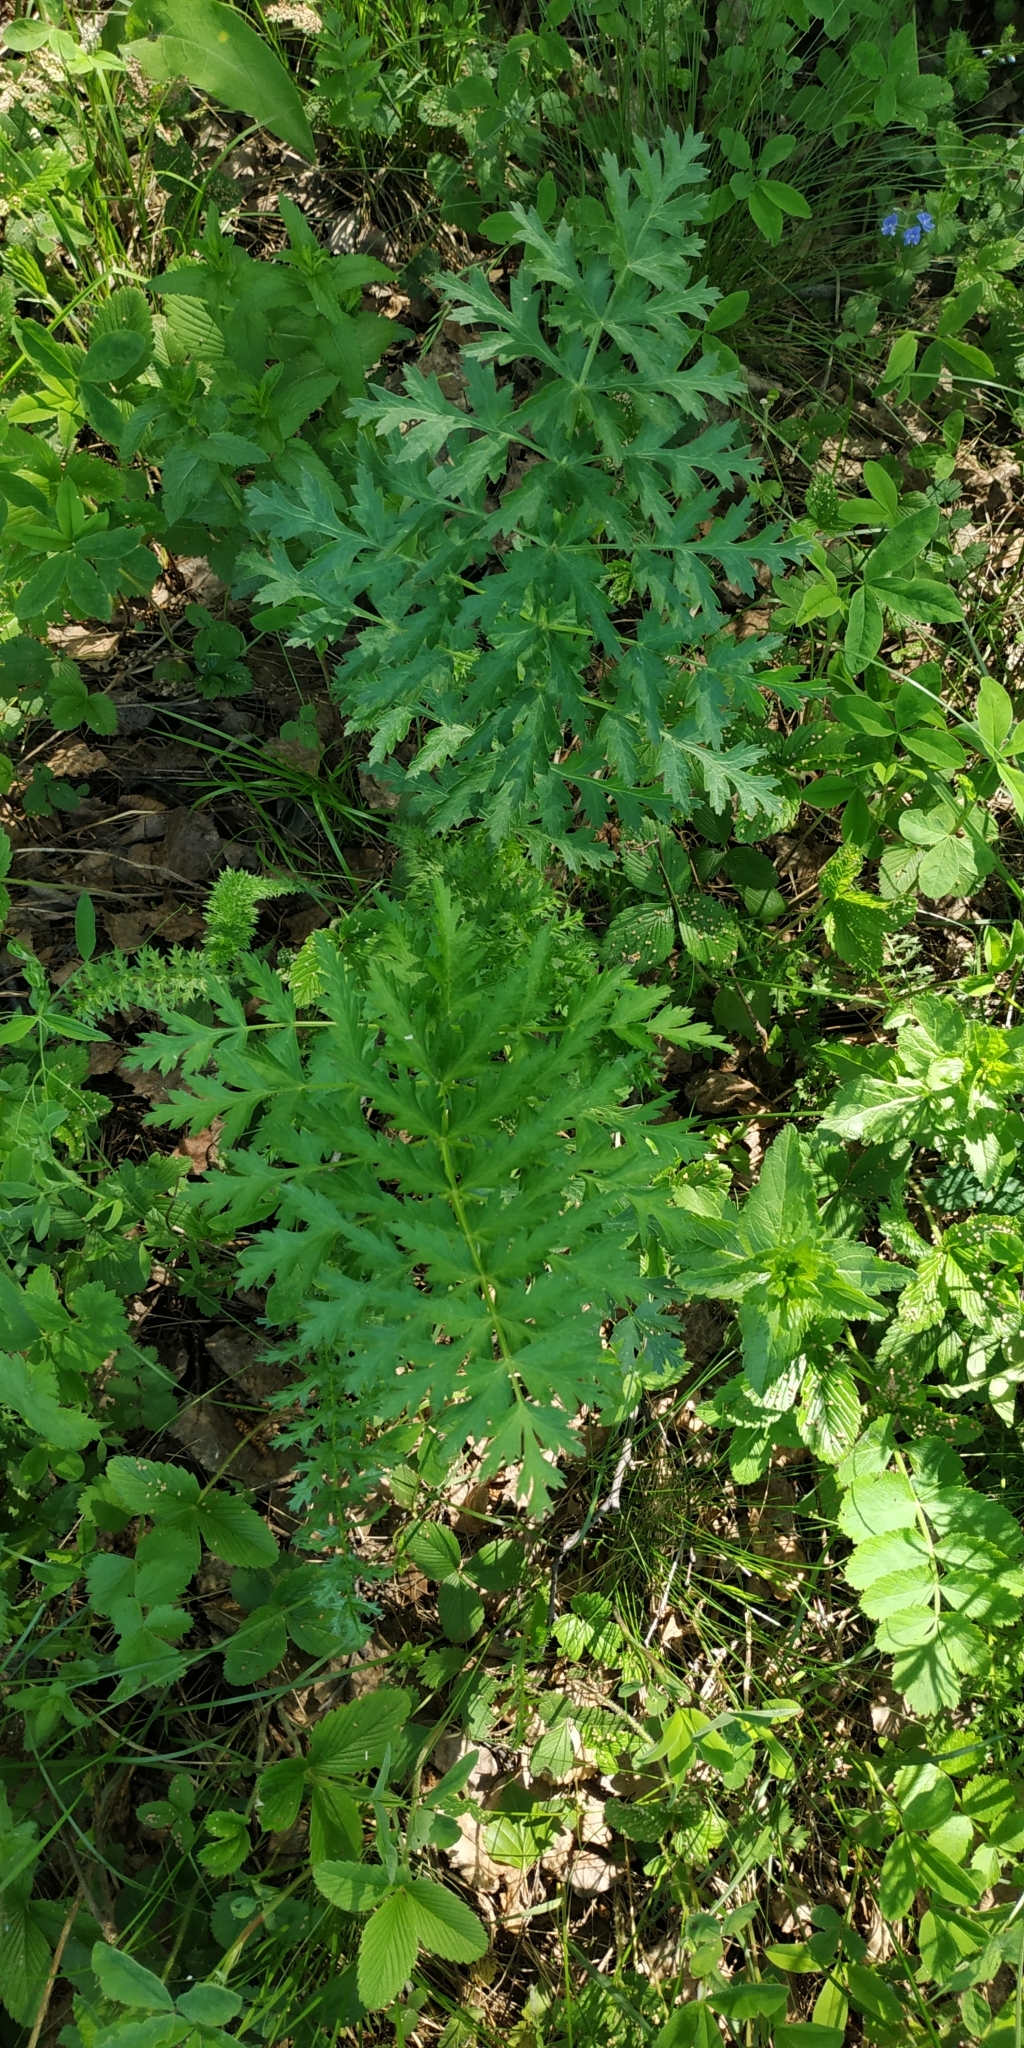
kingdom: Plantae
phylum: Tracheophyta
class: Magnoliopsida
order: Apiales
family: Apiaceae
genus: Seseli
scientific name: Seseli libanotis
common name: Mooncarrot
